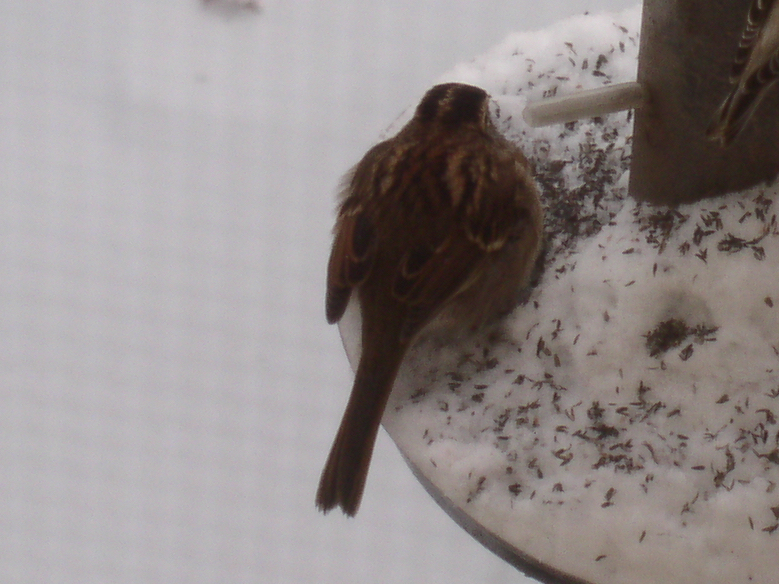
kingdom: Animalia
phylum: Chordata
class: Aves
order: Passeriformes
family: Passerellidae
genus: Zonotrichia
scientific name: Zonotrichia albicollis
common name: White-throated sparrow
